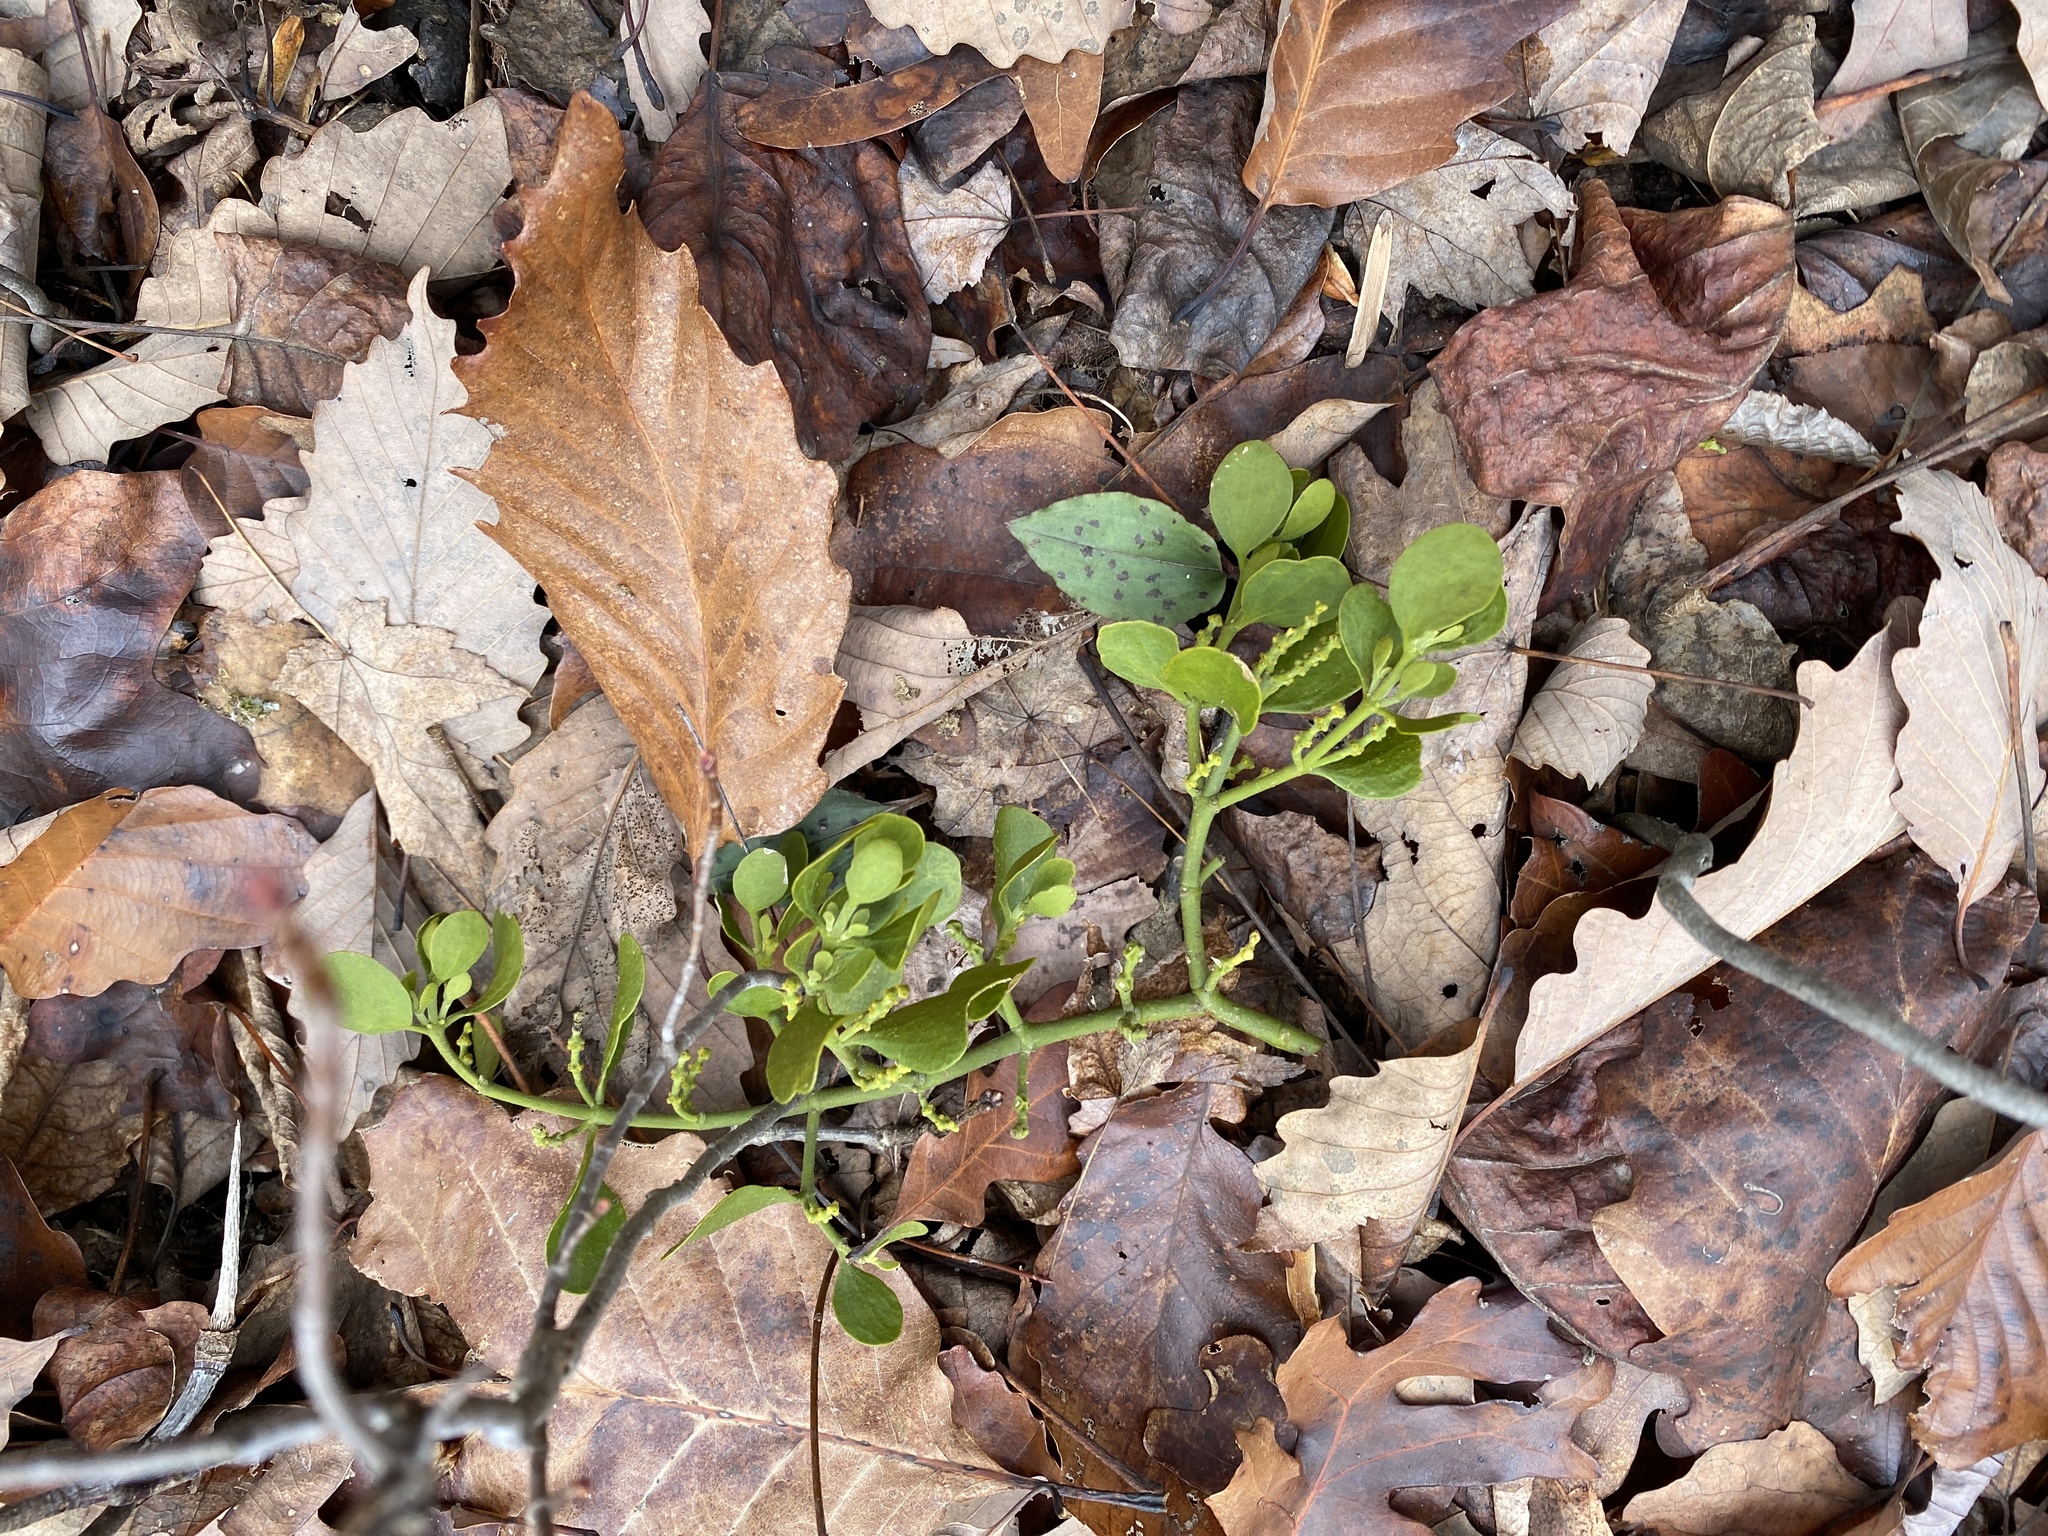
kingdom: Plantae
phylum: Tracheophyta
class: Magnoliopsida
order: Santalales
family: Viscaceae
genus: Phoradendron
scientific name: Phoradendron leucarpum
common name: Pacific mistletoe
